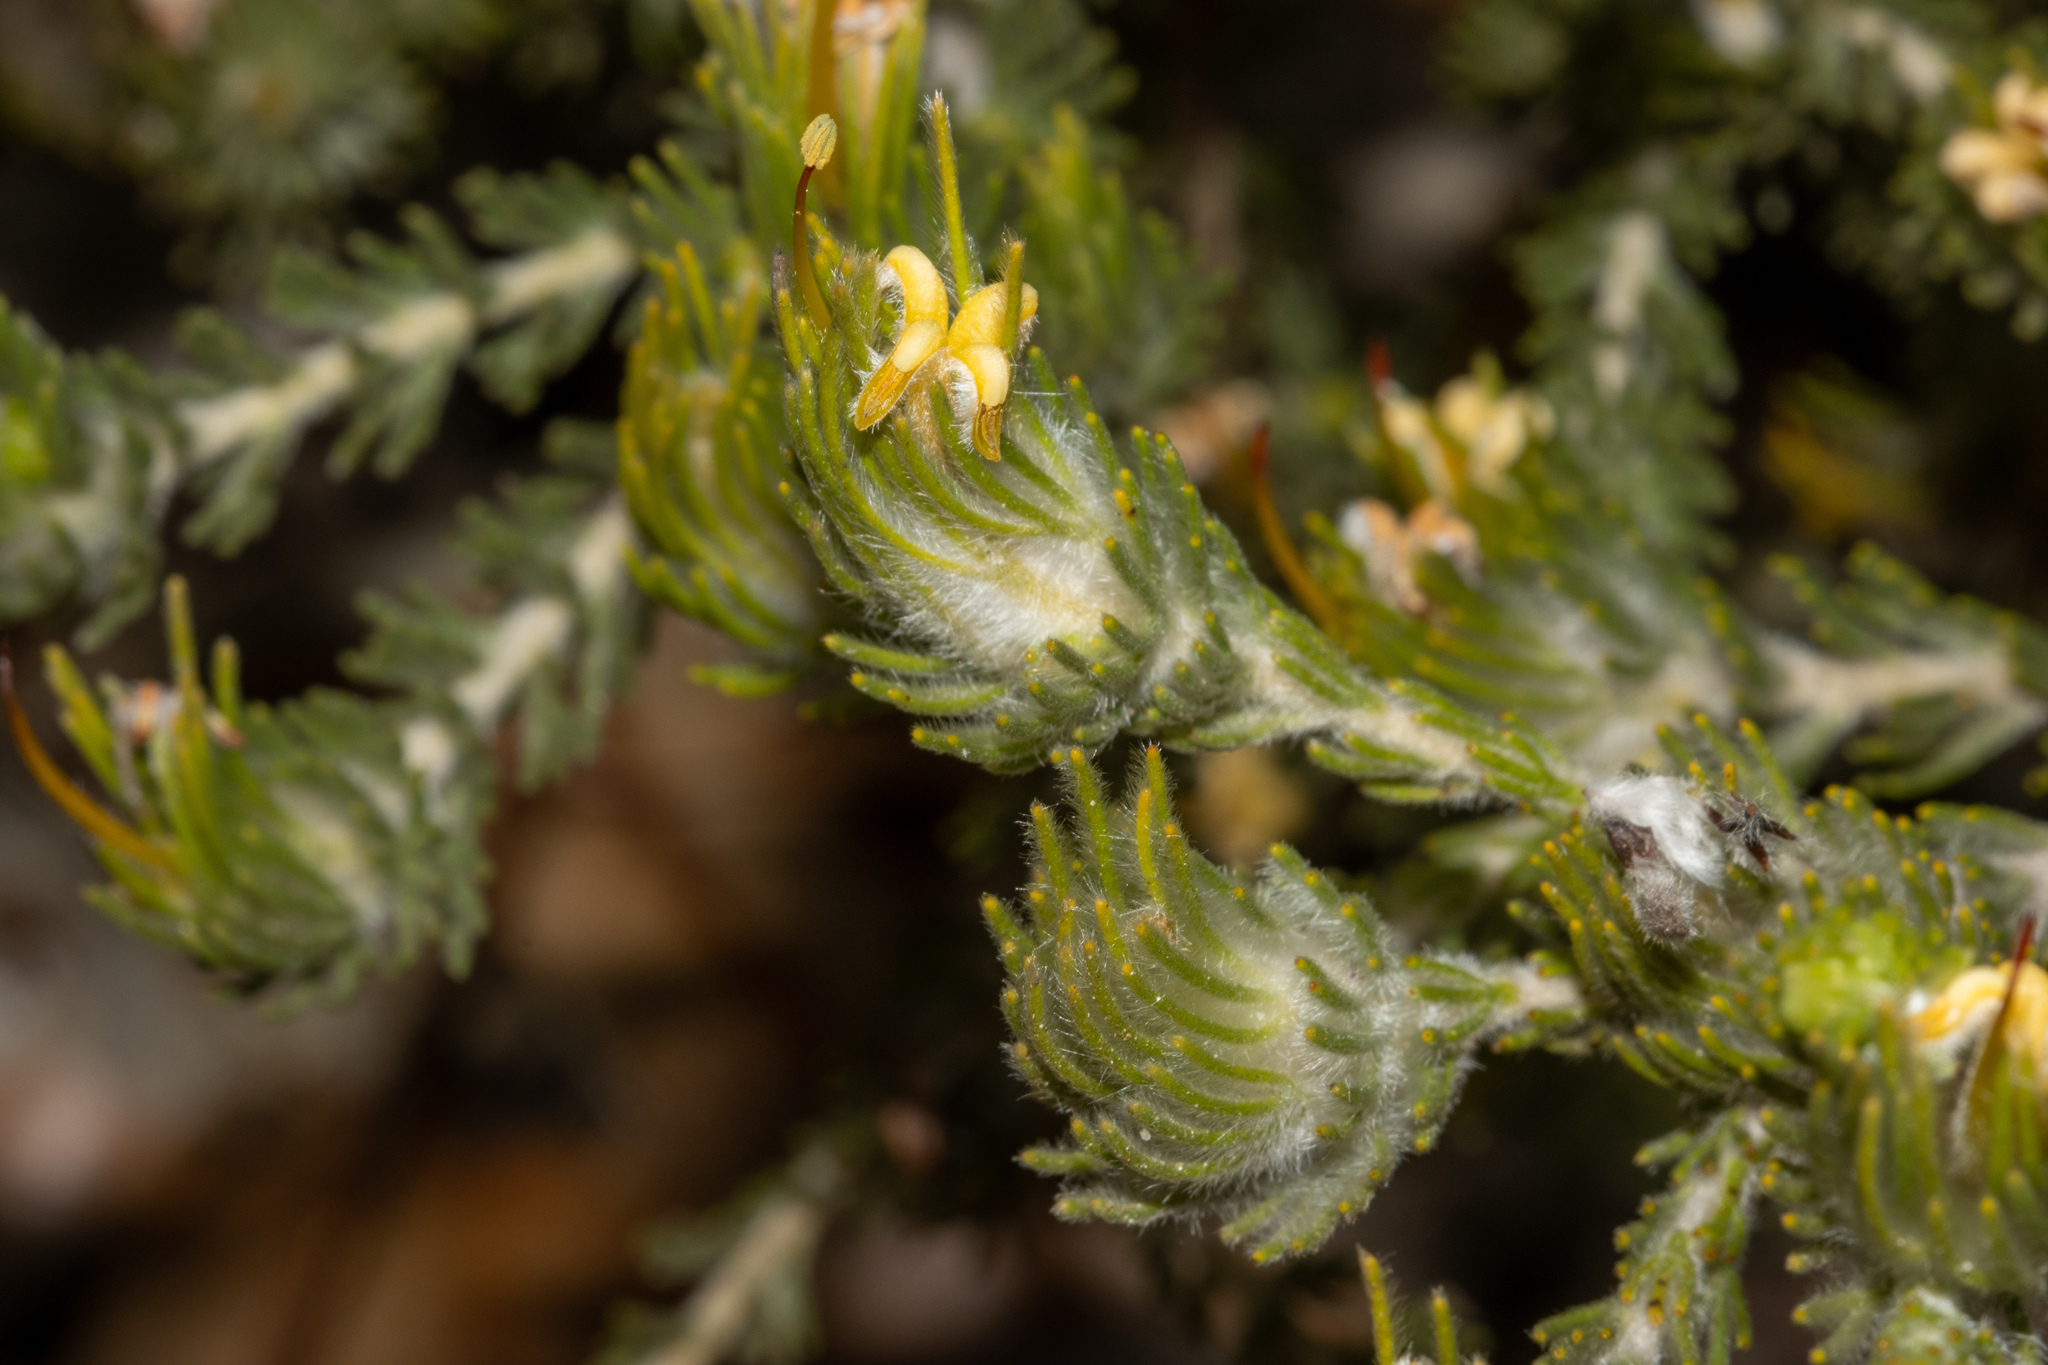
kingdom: Plantae
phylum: Tracheophyta
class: Magnoliopsida
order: Proteales
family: Proteaceae
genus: Adenanthos
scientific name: Adenanthos terminalis
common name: Yellow gland-flower
